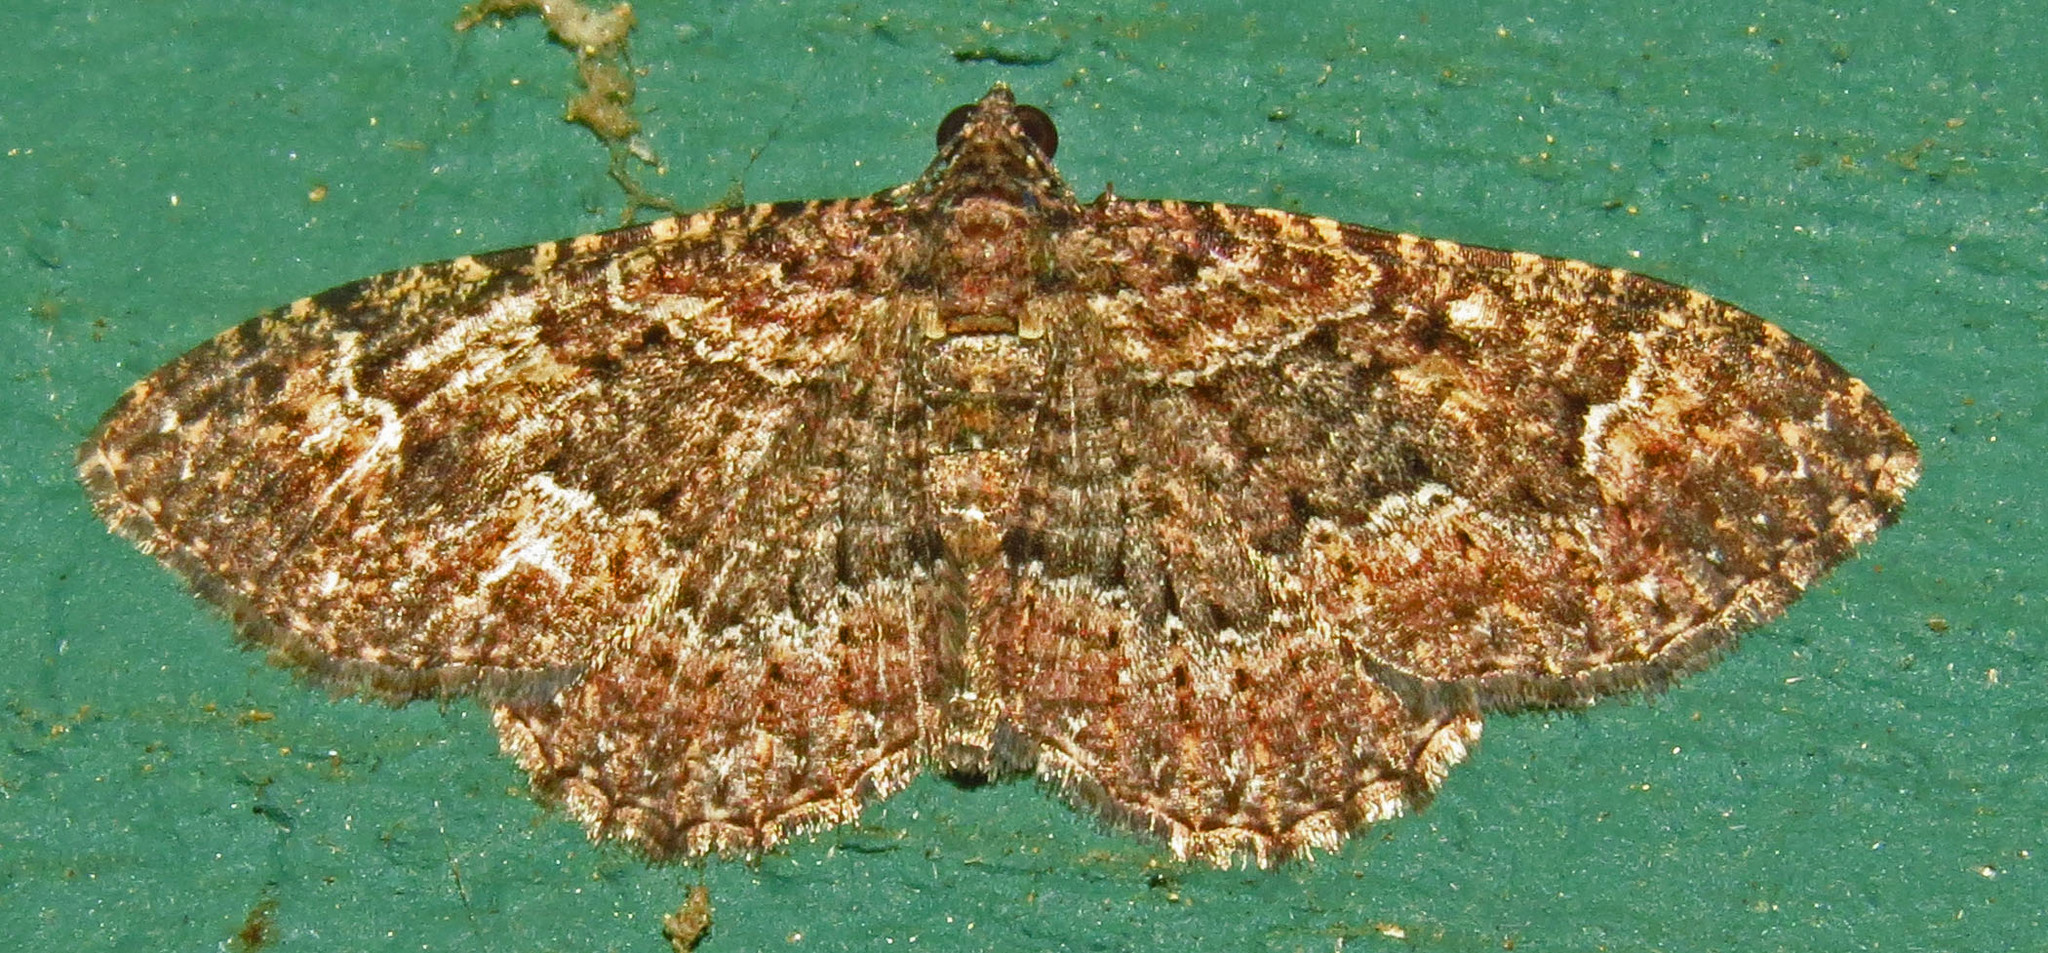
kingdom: Animalia
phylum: Arthropoda
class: Insecta
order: Lepidoptera
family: Geometridae
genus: Disclisioprocta
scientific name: Disclisioprocta stellata
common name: Somber carpet
